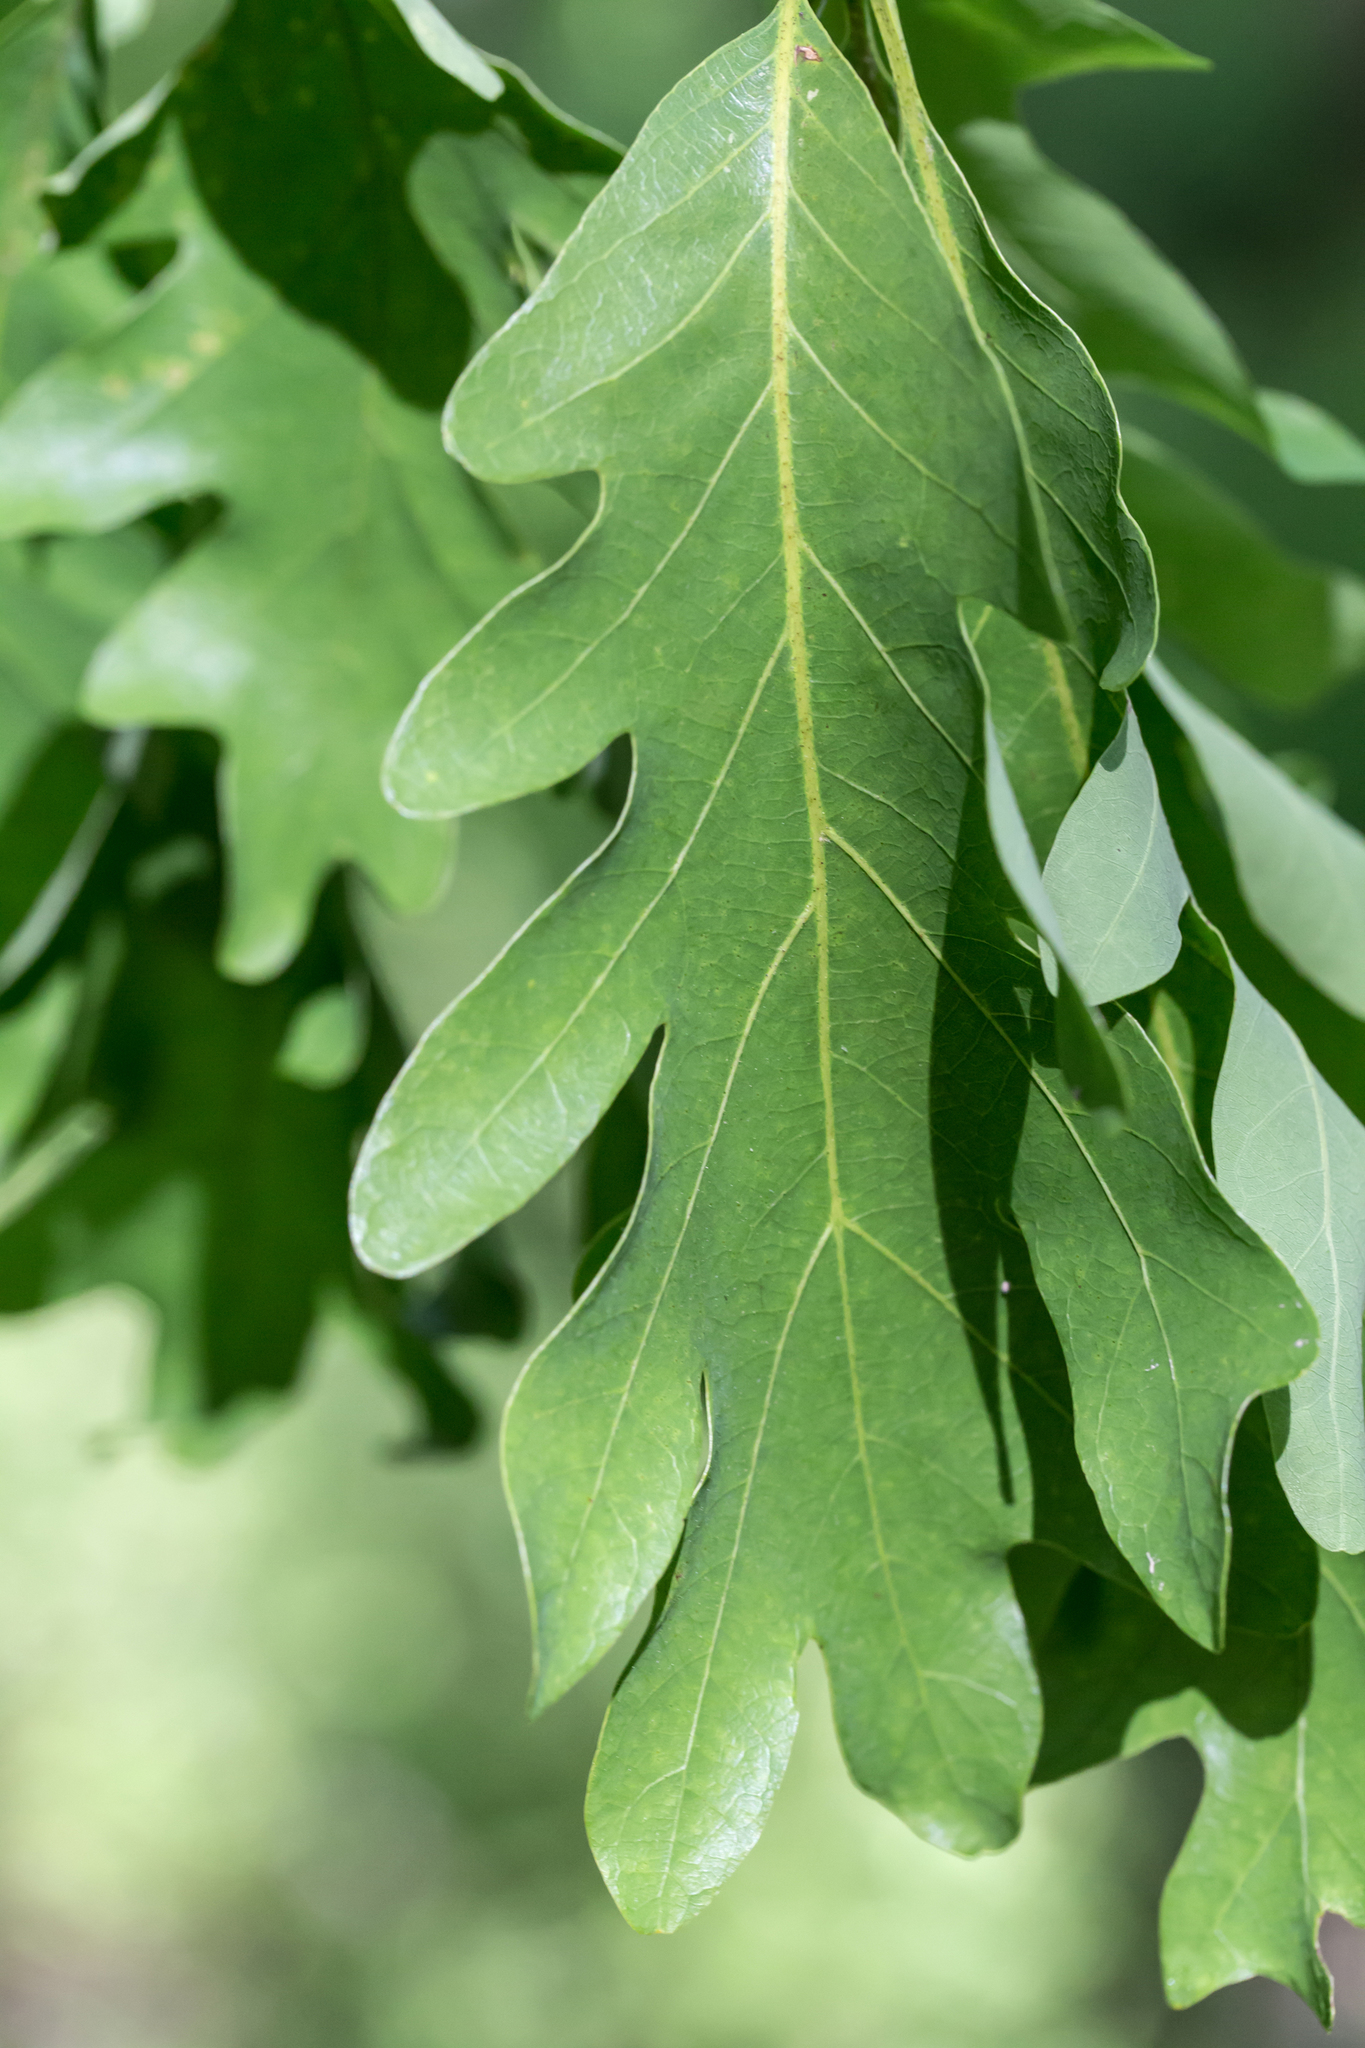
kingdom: Plantae
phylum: Tracheophyta
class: Magnoliopsida
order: Fagales
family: Fagaceae
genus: Quercus
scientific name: Quercus alba
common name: White oak
